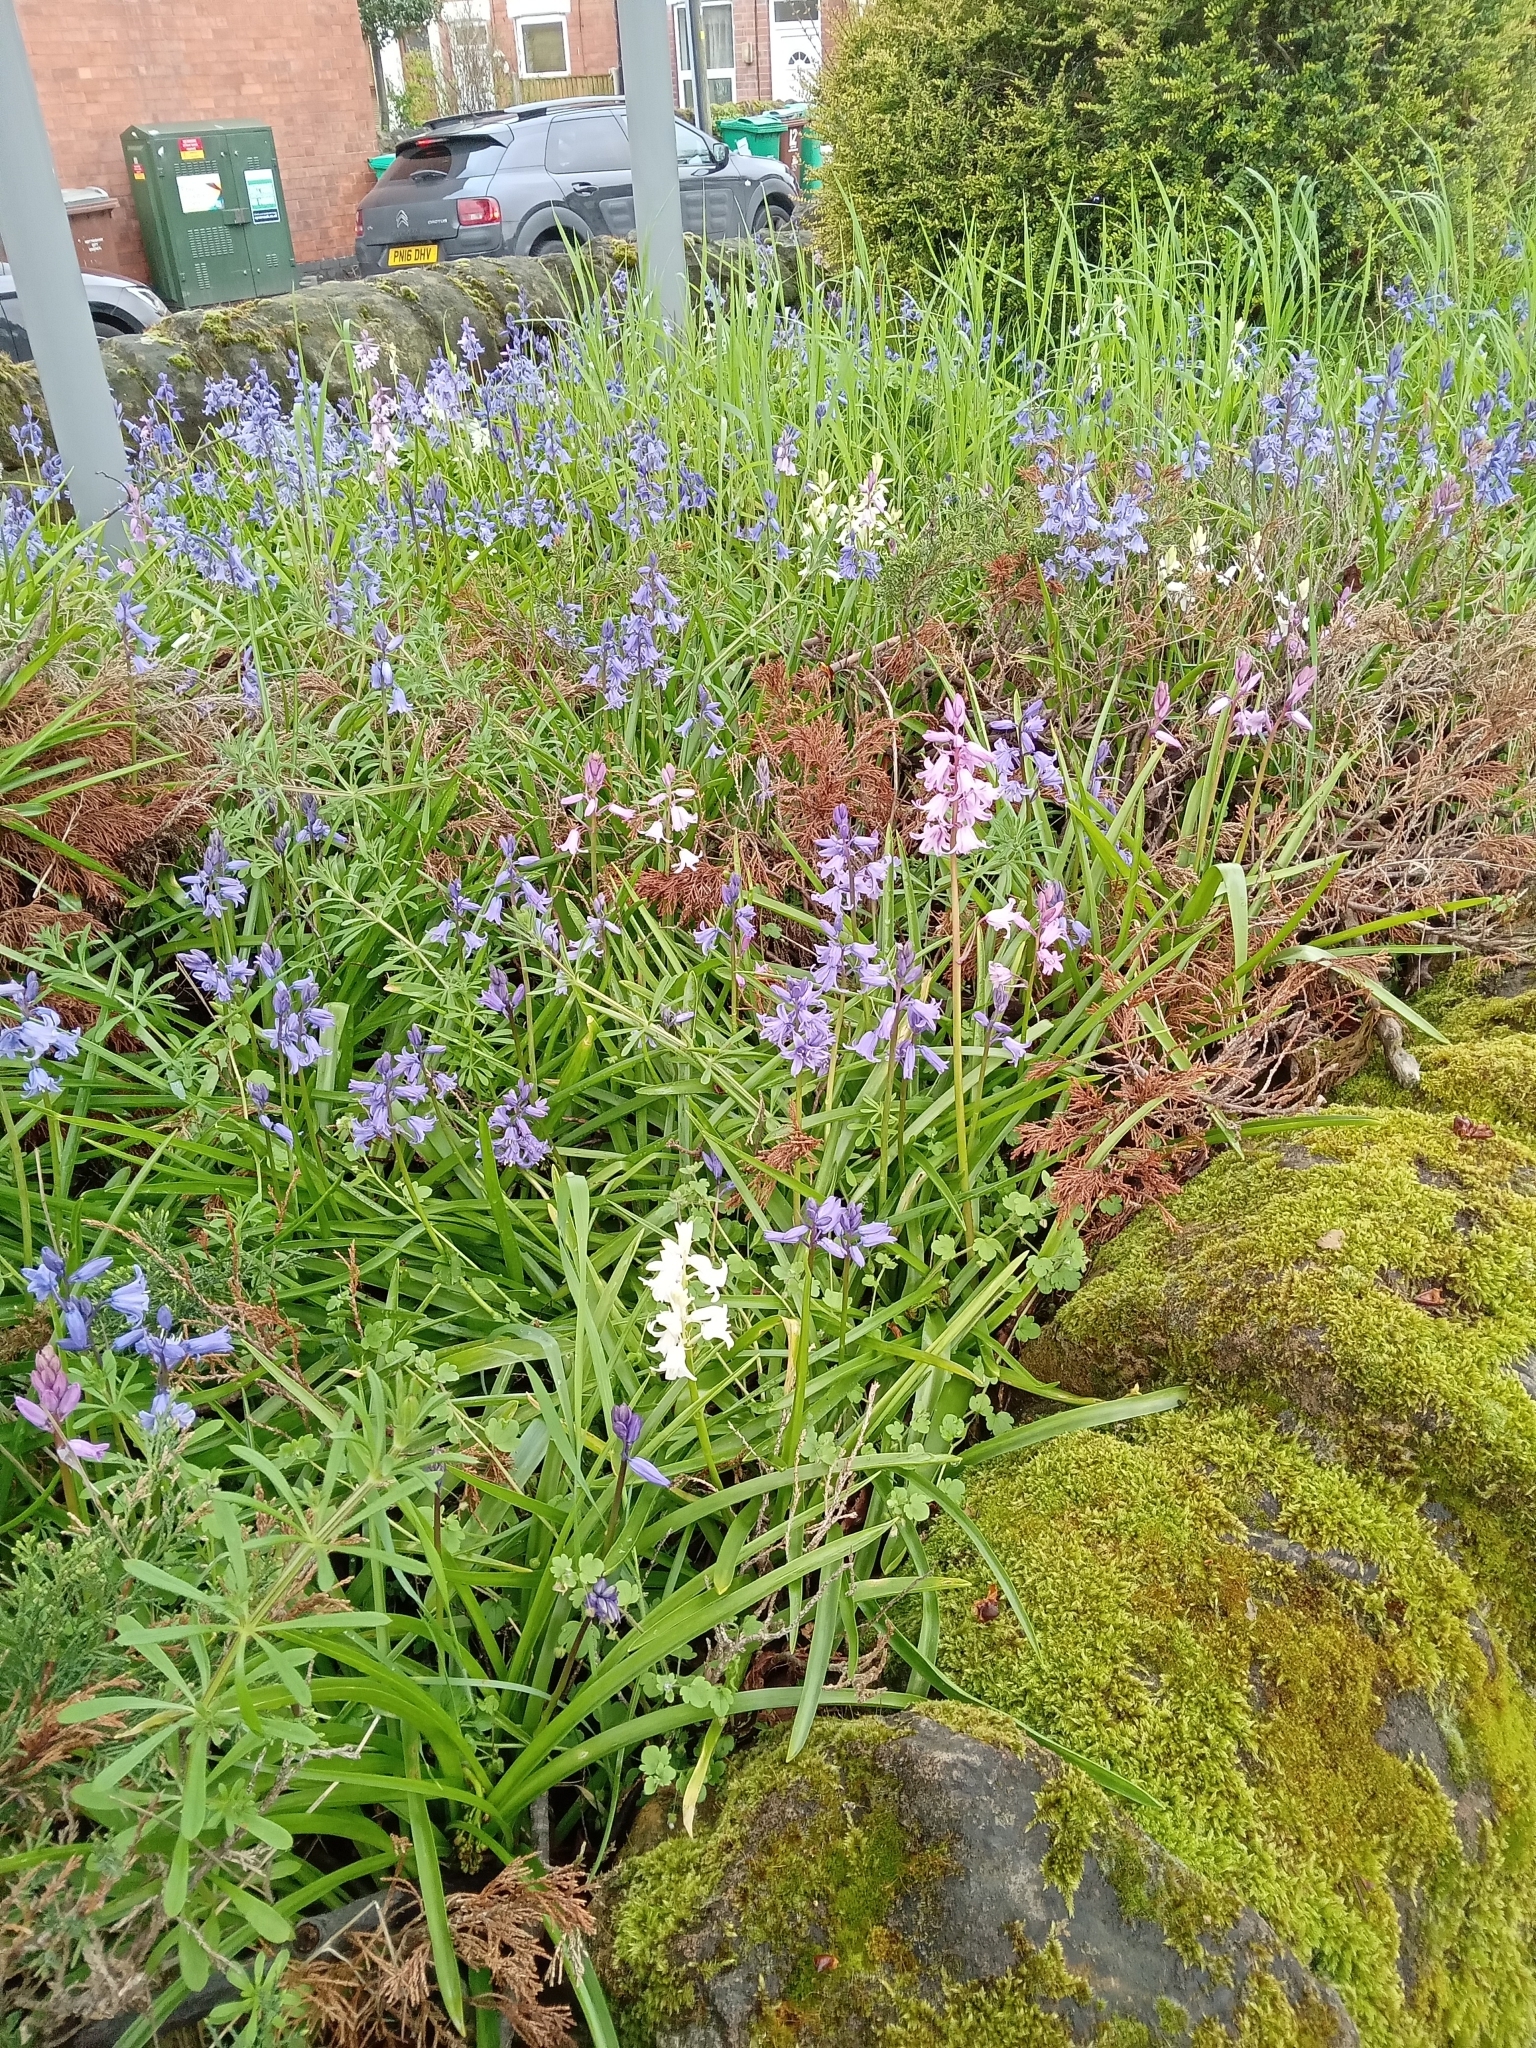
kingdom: Plantae
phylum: Tracheophyta
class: Liliopsida
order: Asparagales
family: Asparagaceae
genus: Hyacinthoides
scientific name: Hyacinthoides massartiana
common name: Hyacinthoides
